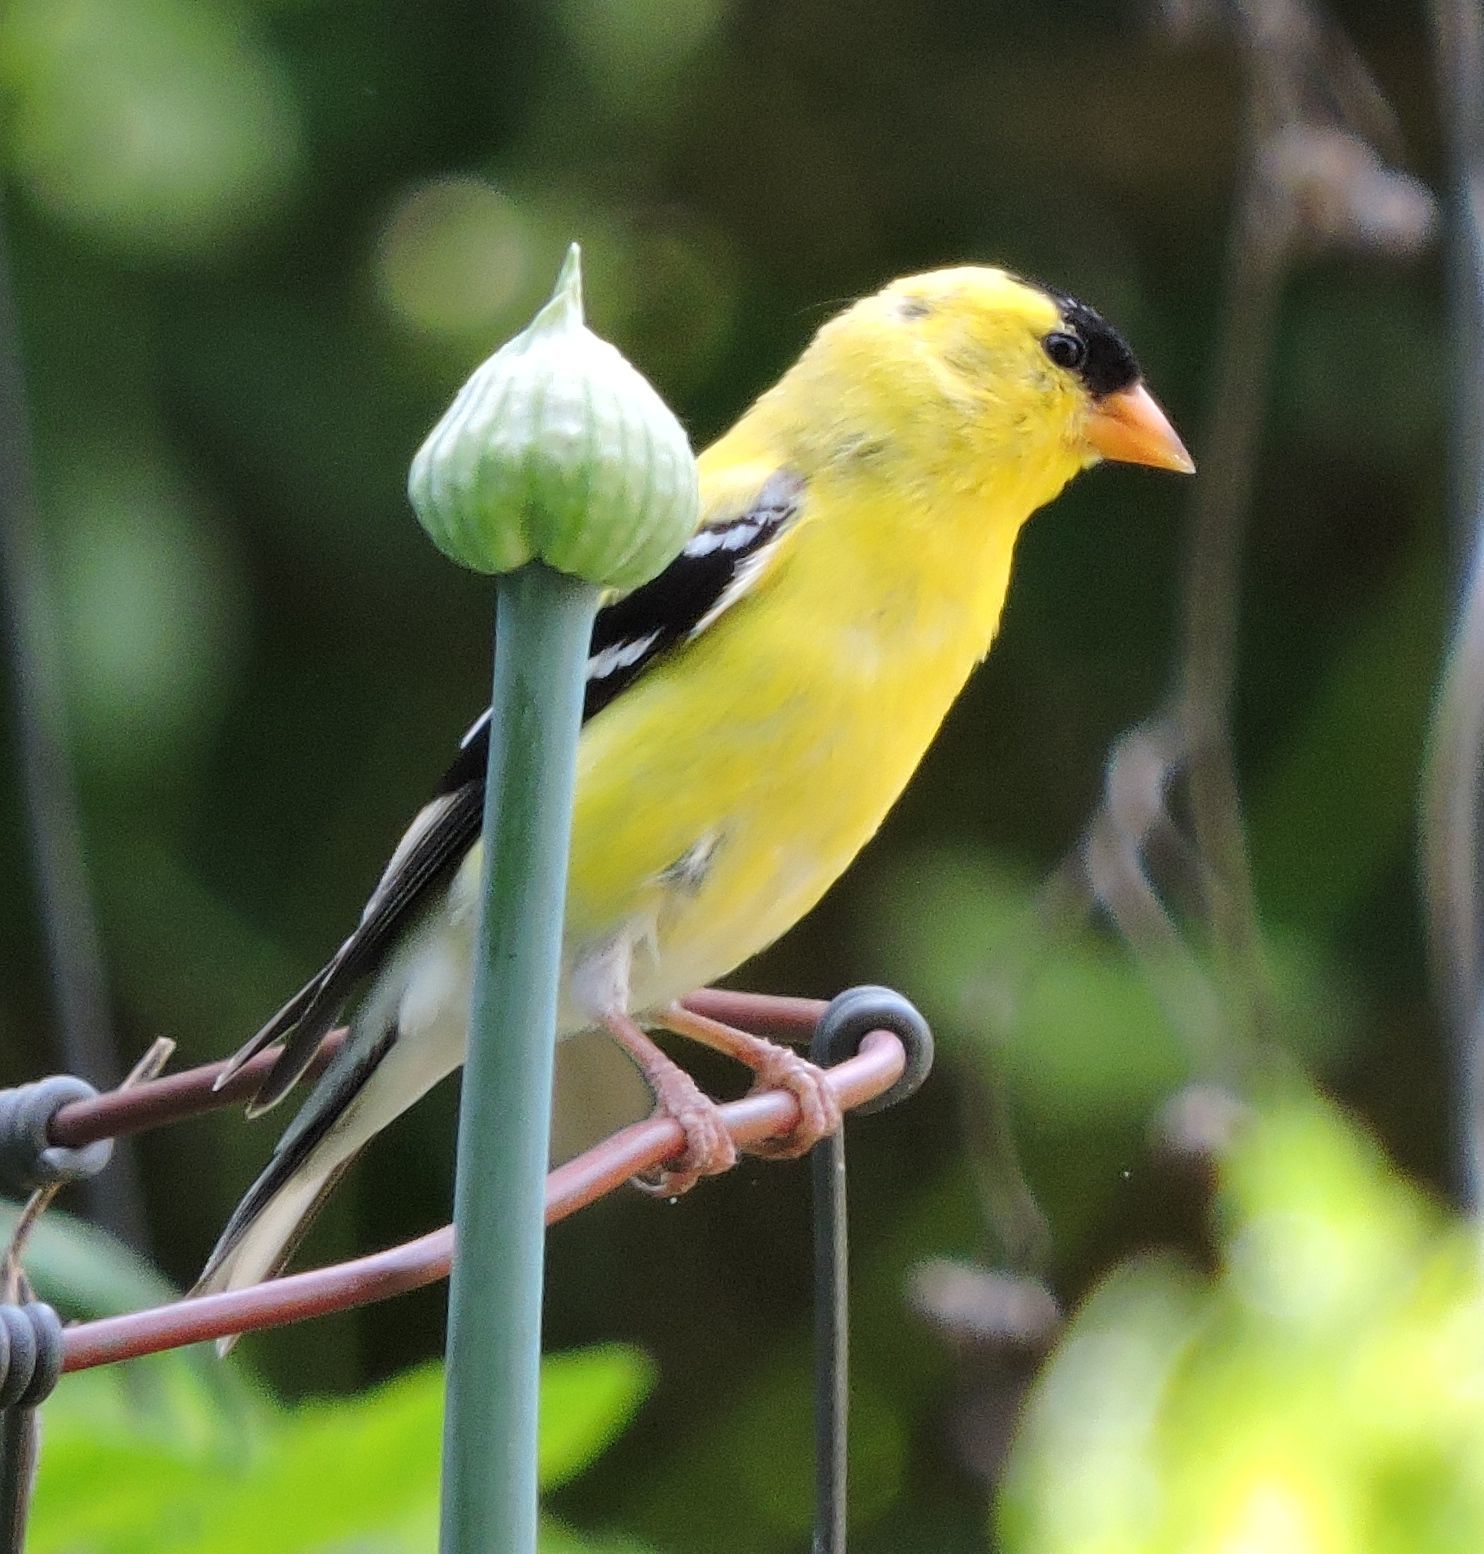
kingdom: Animalia
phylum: Chordata
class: Aves
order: Passeriformes
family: Fringillidae
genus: Spinus
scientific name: Spinus tristis
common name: American goldfinch
